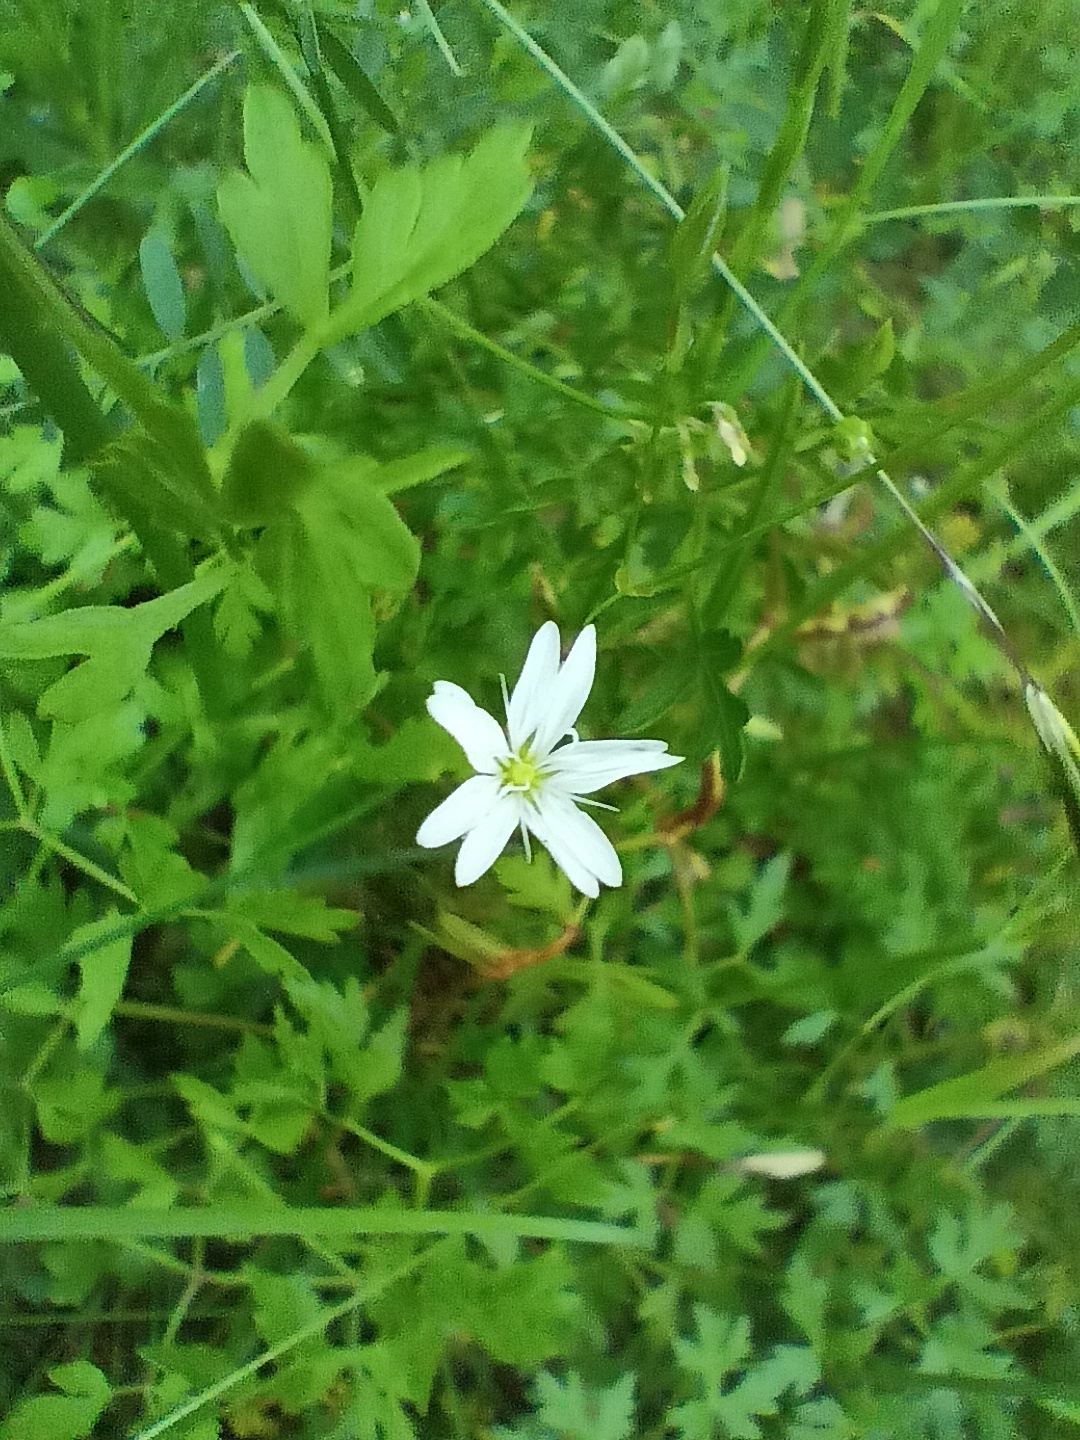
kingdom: Plantae
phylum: Tracheophyta
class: Magnoliopsida
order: Caryophyllales
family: Caryophyllaceae
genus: Stellaria
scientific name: Stellaria graminea
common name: Grass-like starwort
